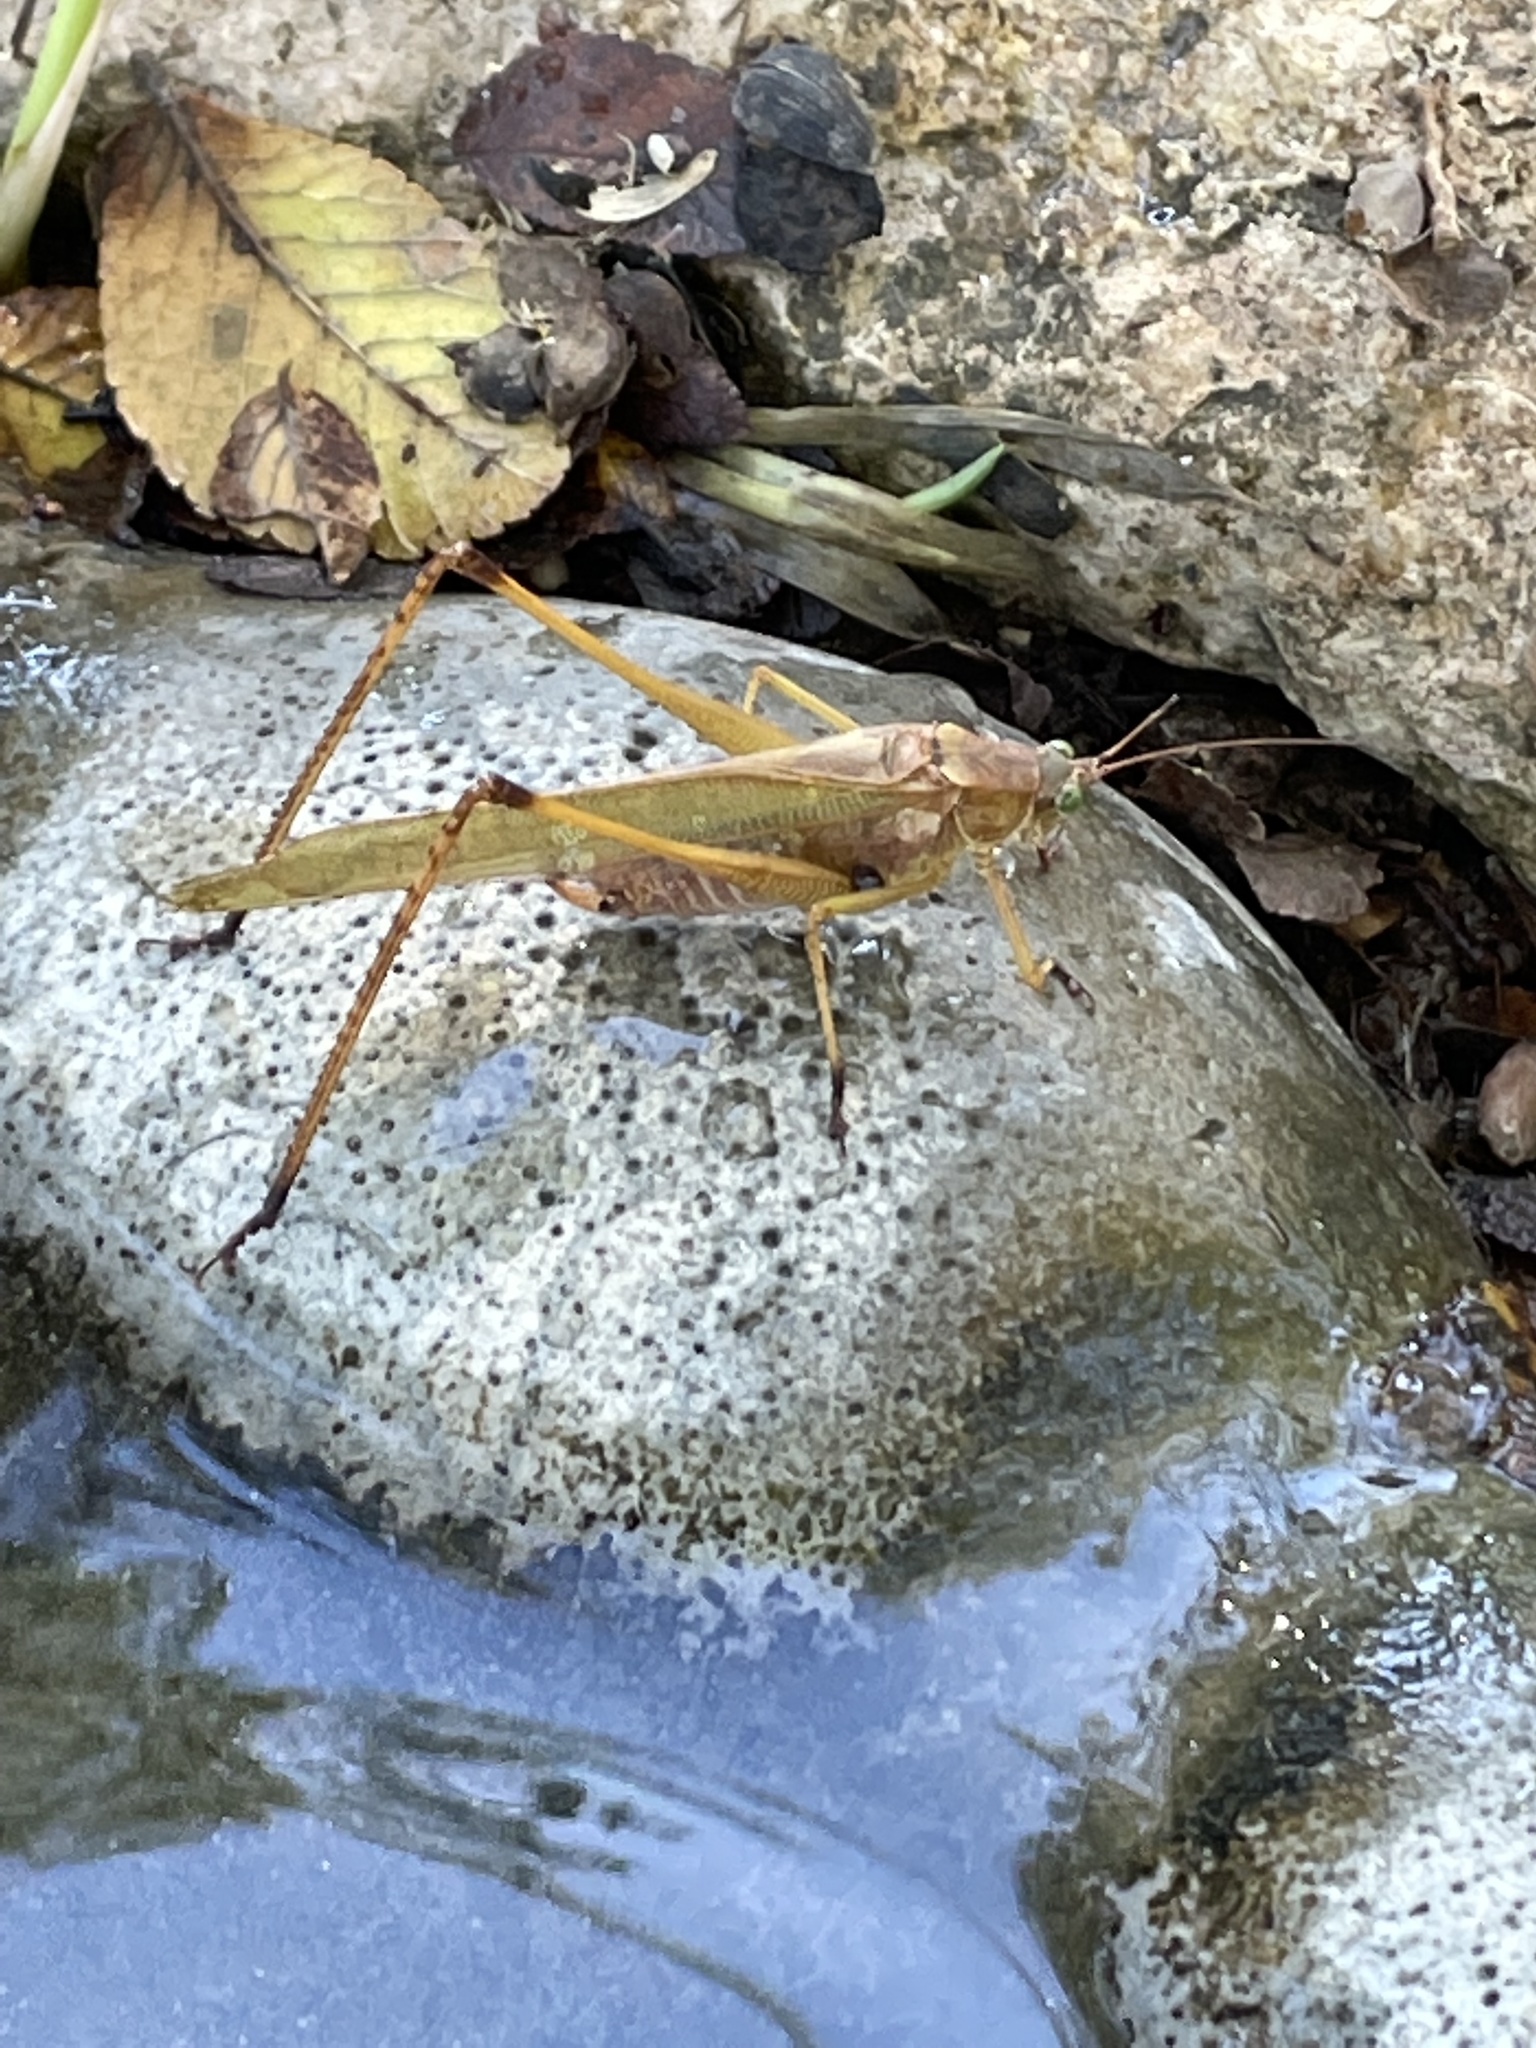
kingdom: Animalia
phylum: Arthropoda
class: Insecta
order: Orthoptera
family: Tettigoniidae
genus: Scudderia
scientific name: Scudderia furcata
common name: Fork-tailed bush katydid
